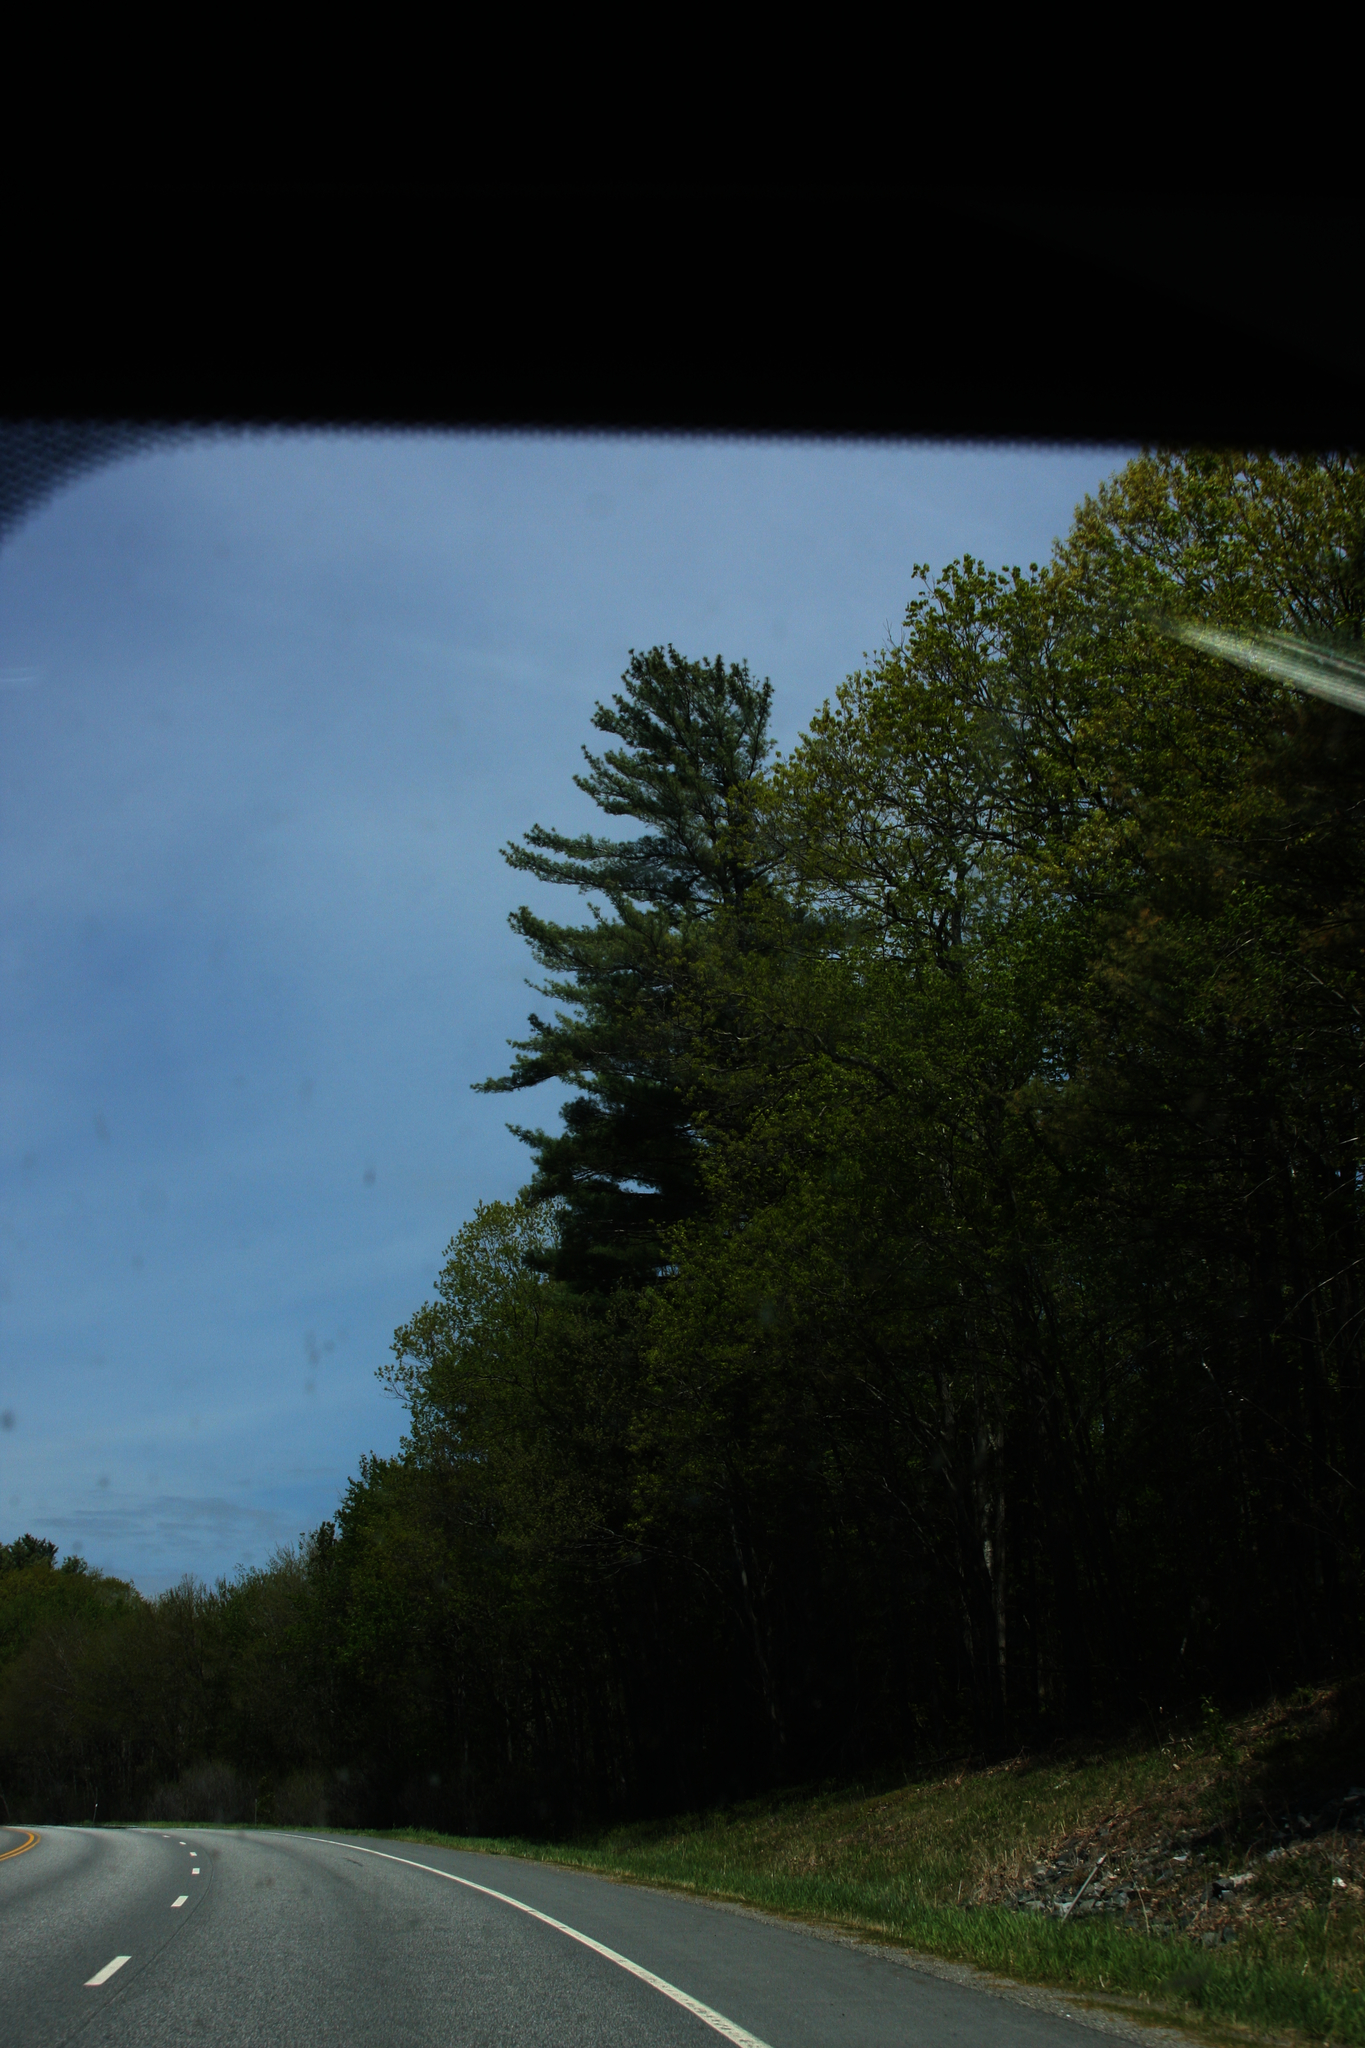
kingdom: Plantae
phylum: Tracheophyta
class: Pinopsida
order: Pinales
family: Pinaceae
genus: Pinus
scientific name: Pinus strobus
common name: Weymouth pine
